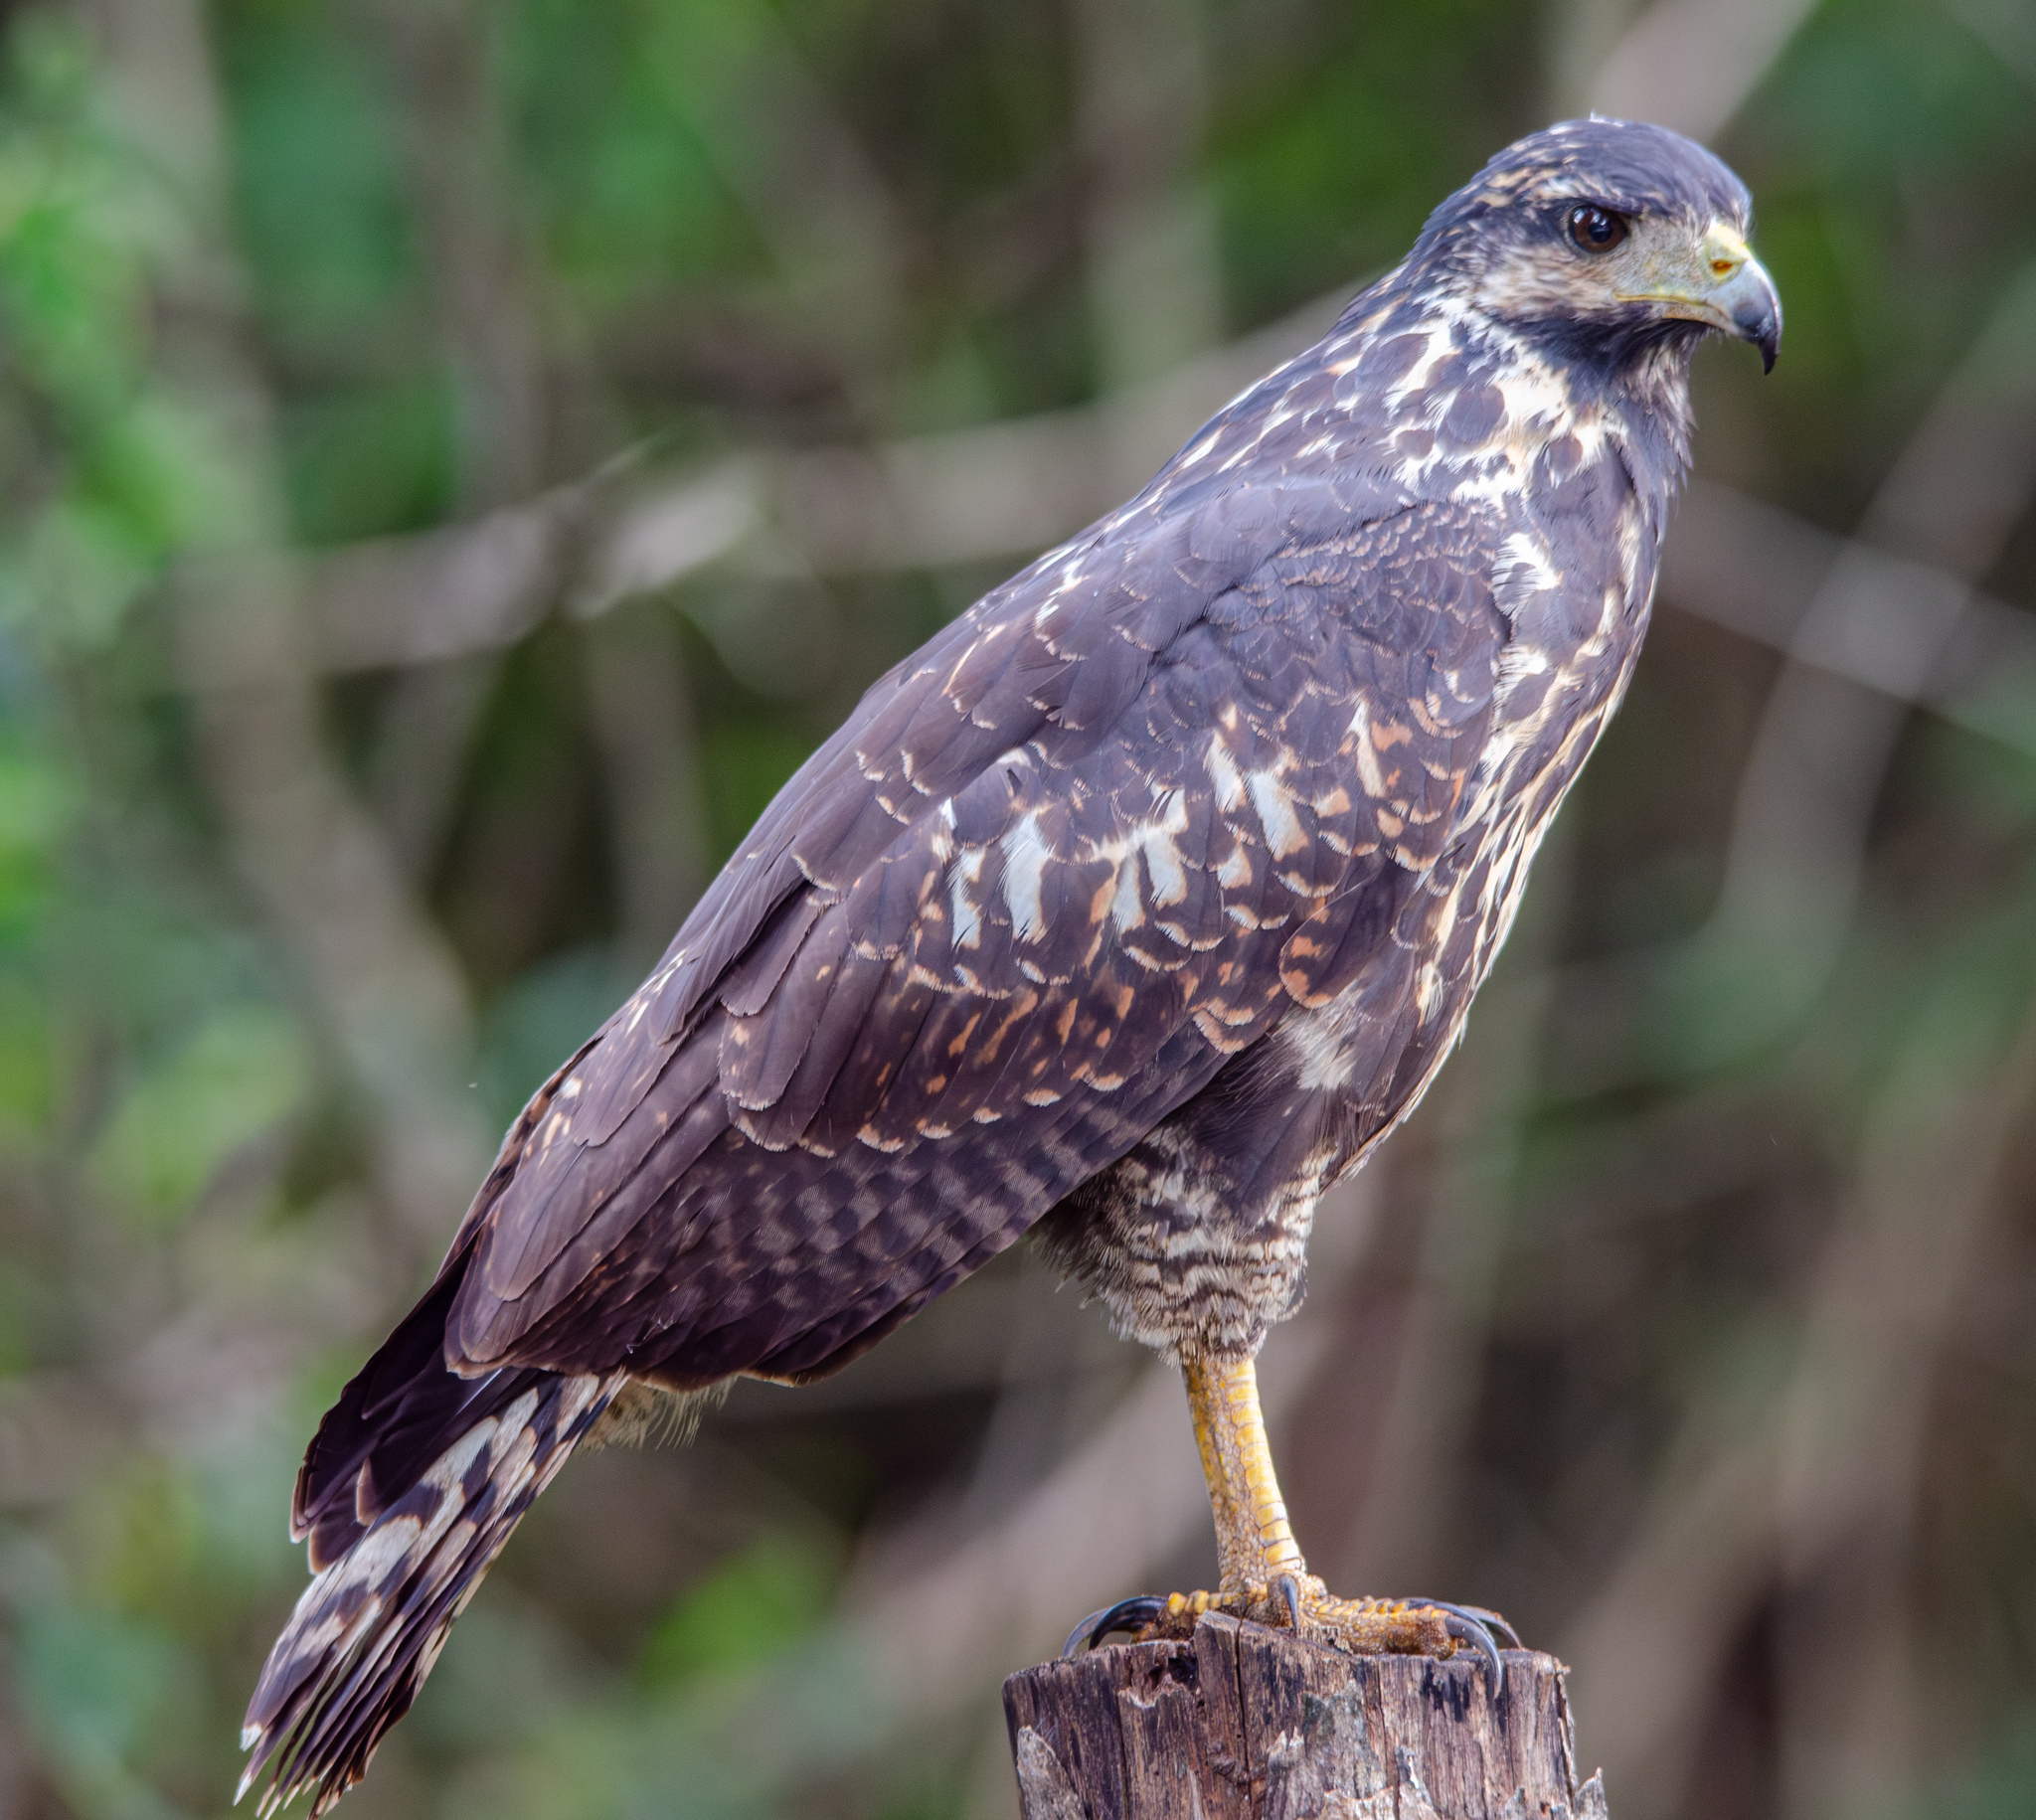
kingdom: Animalia
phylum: Chordata
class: Aves
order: Accipitriformes
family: Accipitridae
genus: Buteogallus
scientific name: Buteogallus anthracinus
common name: Common black hawk
